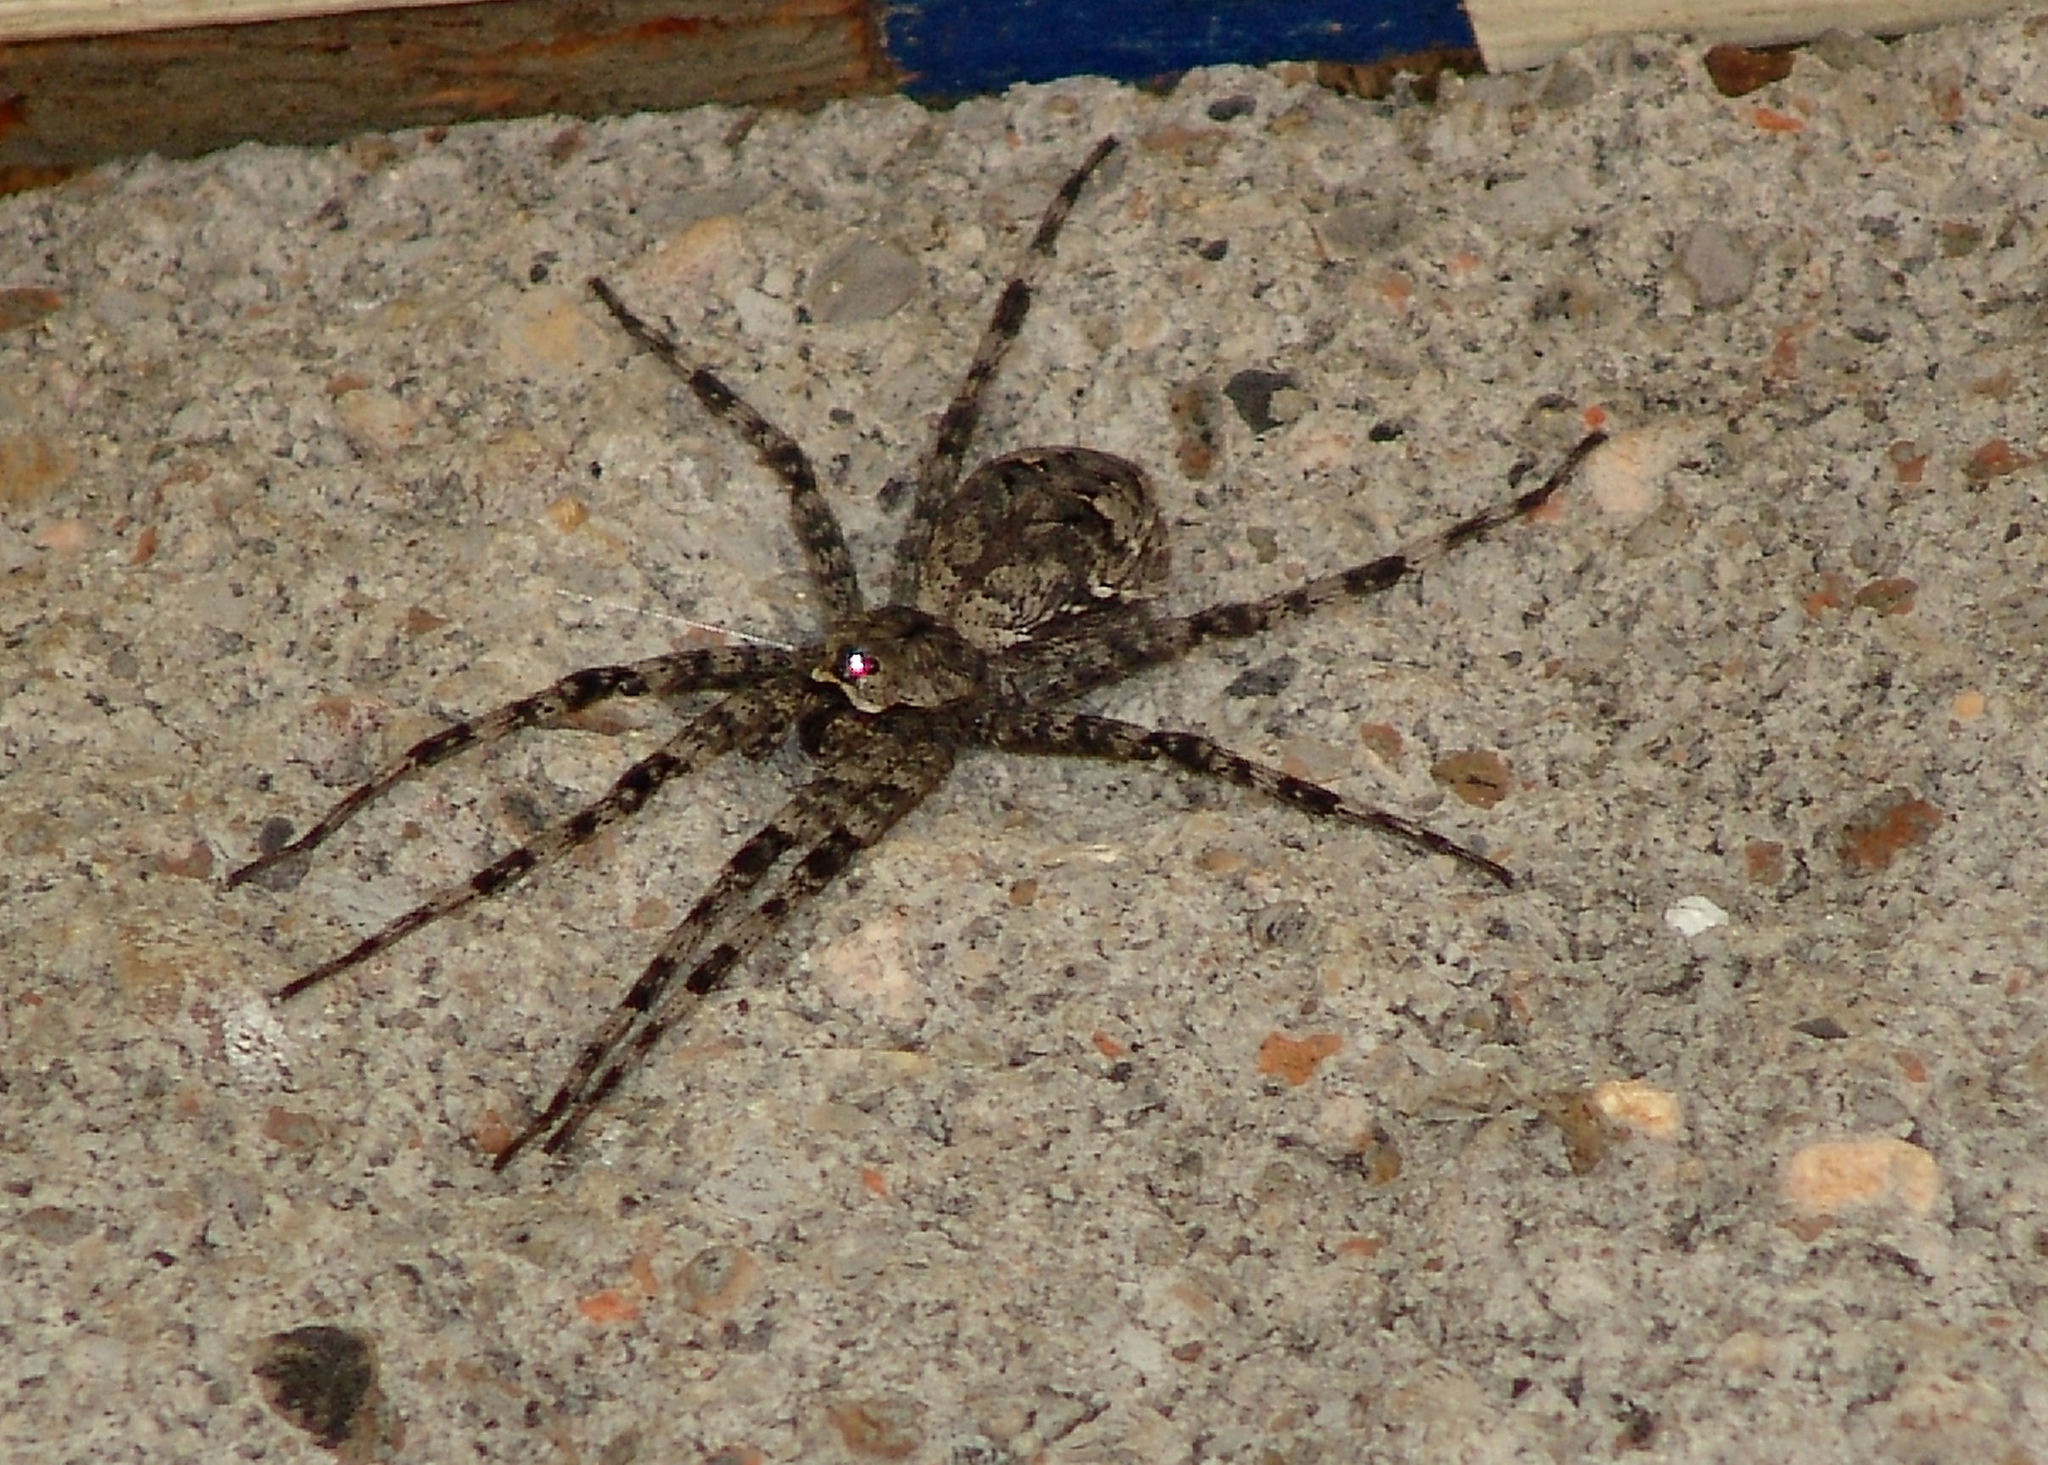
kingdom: Animalia
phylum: Arthropoda
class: Arachnida
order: Araneae
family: Pisauridae
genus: Dolomedes
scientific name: Dolomedes albineus
